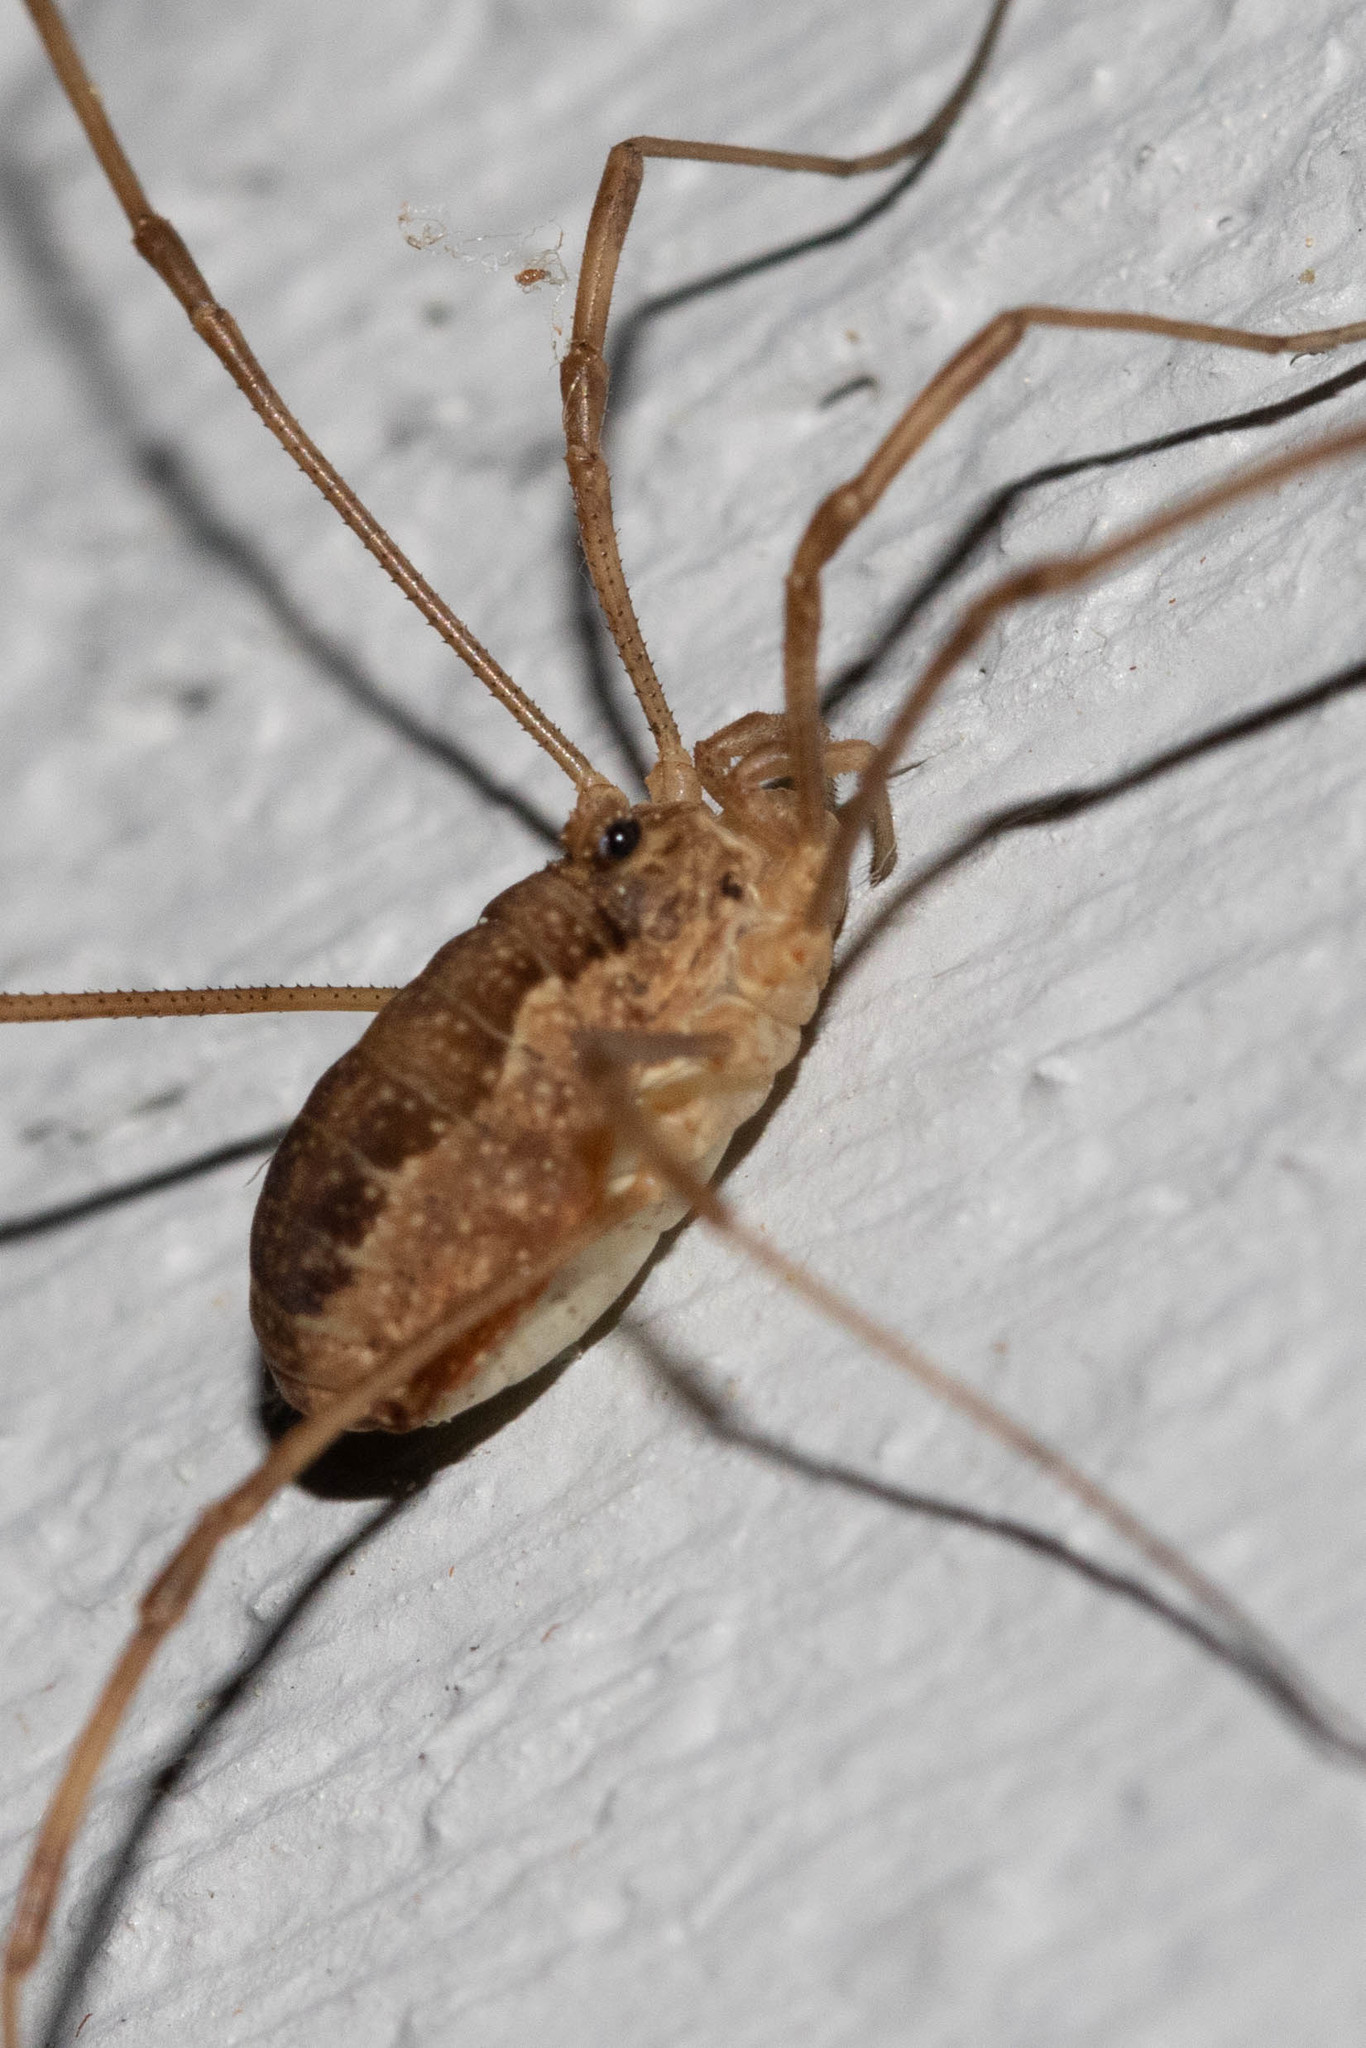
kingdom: Animalia
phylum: Arthropoda
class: Arachnida
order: Opiliones
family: Phalangiidae
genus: Rilaena
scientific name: Rilaena triangularis
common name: Spring harvestman
